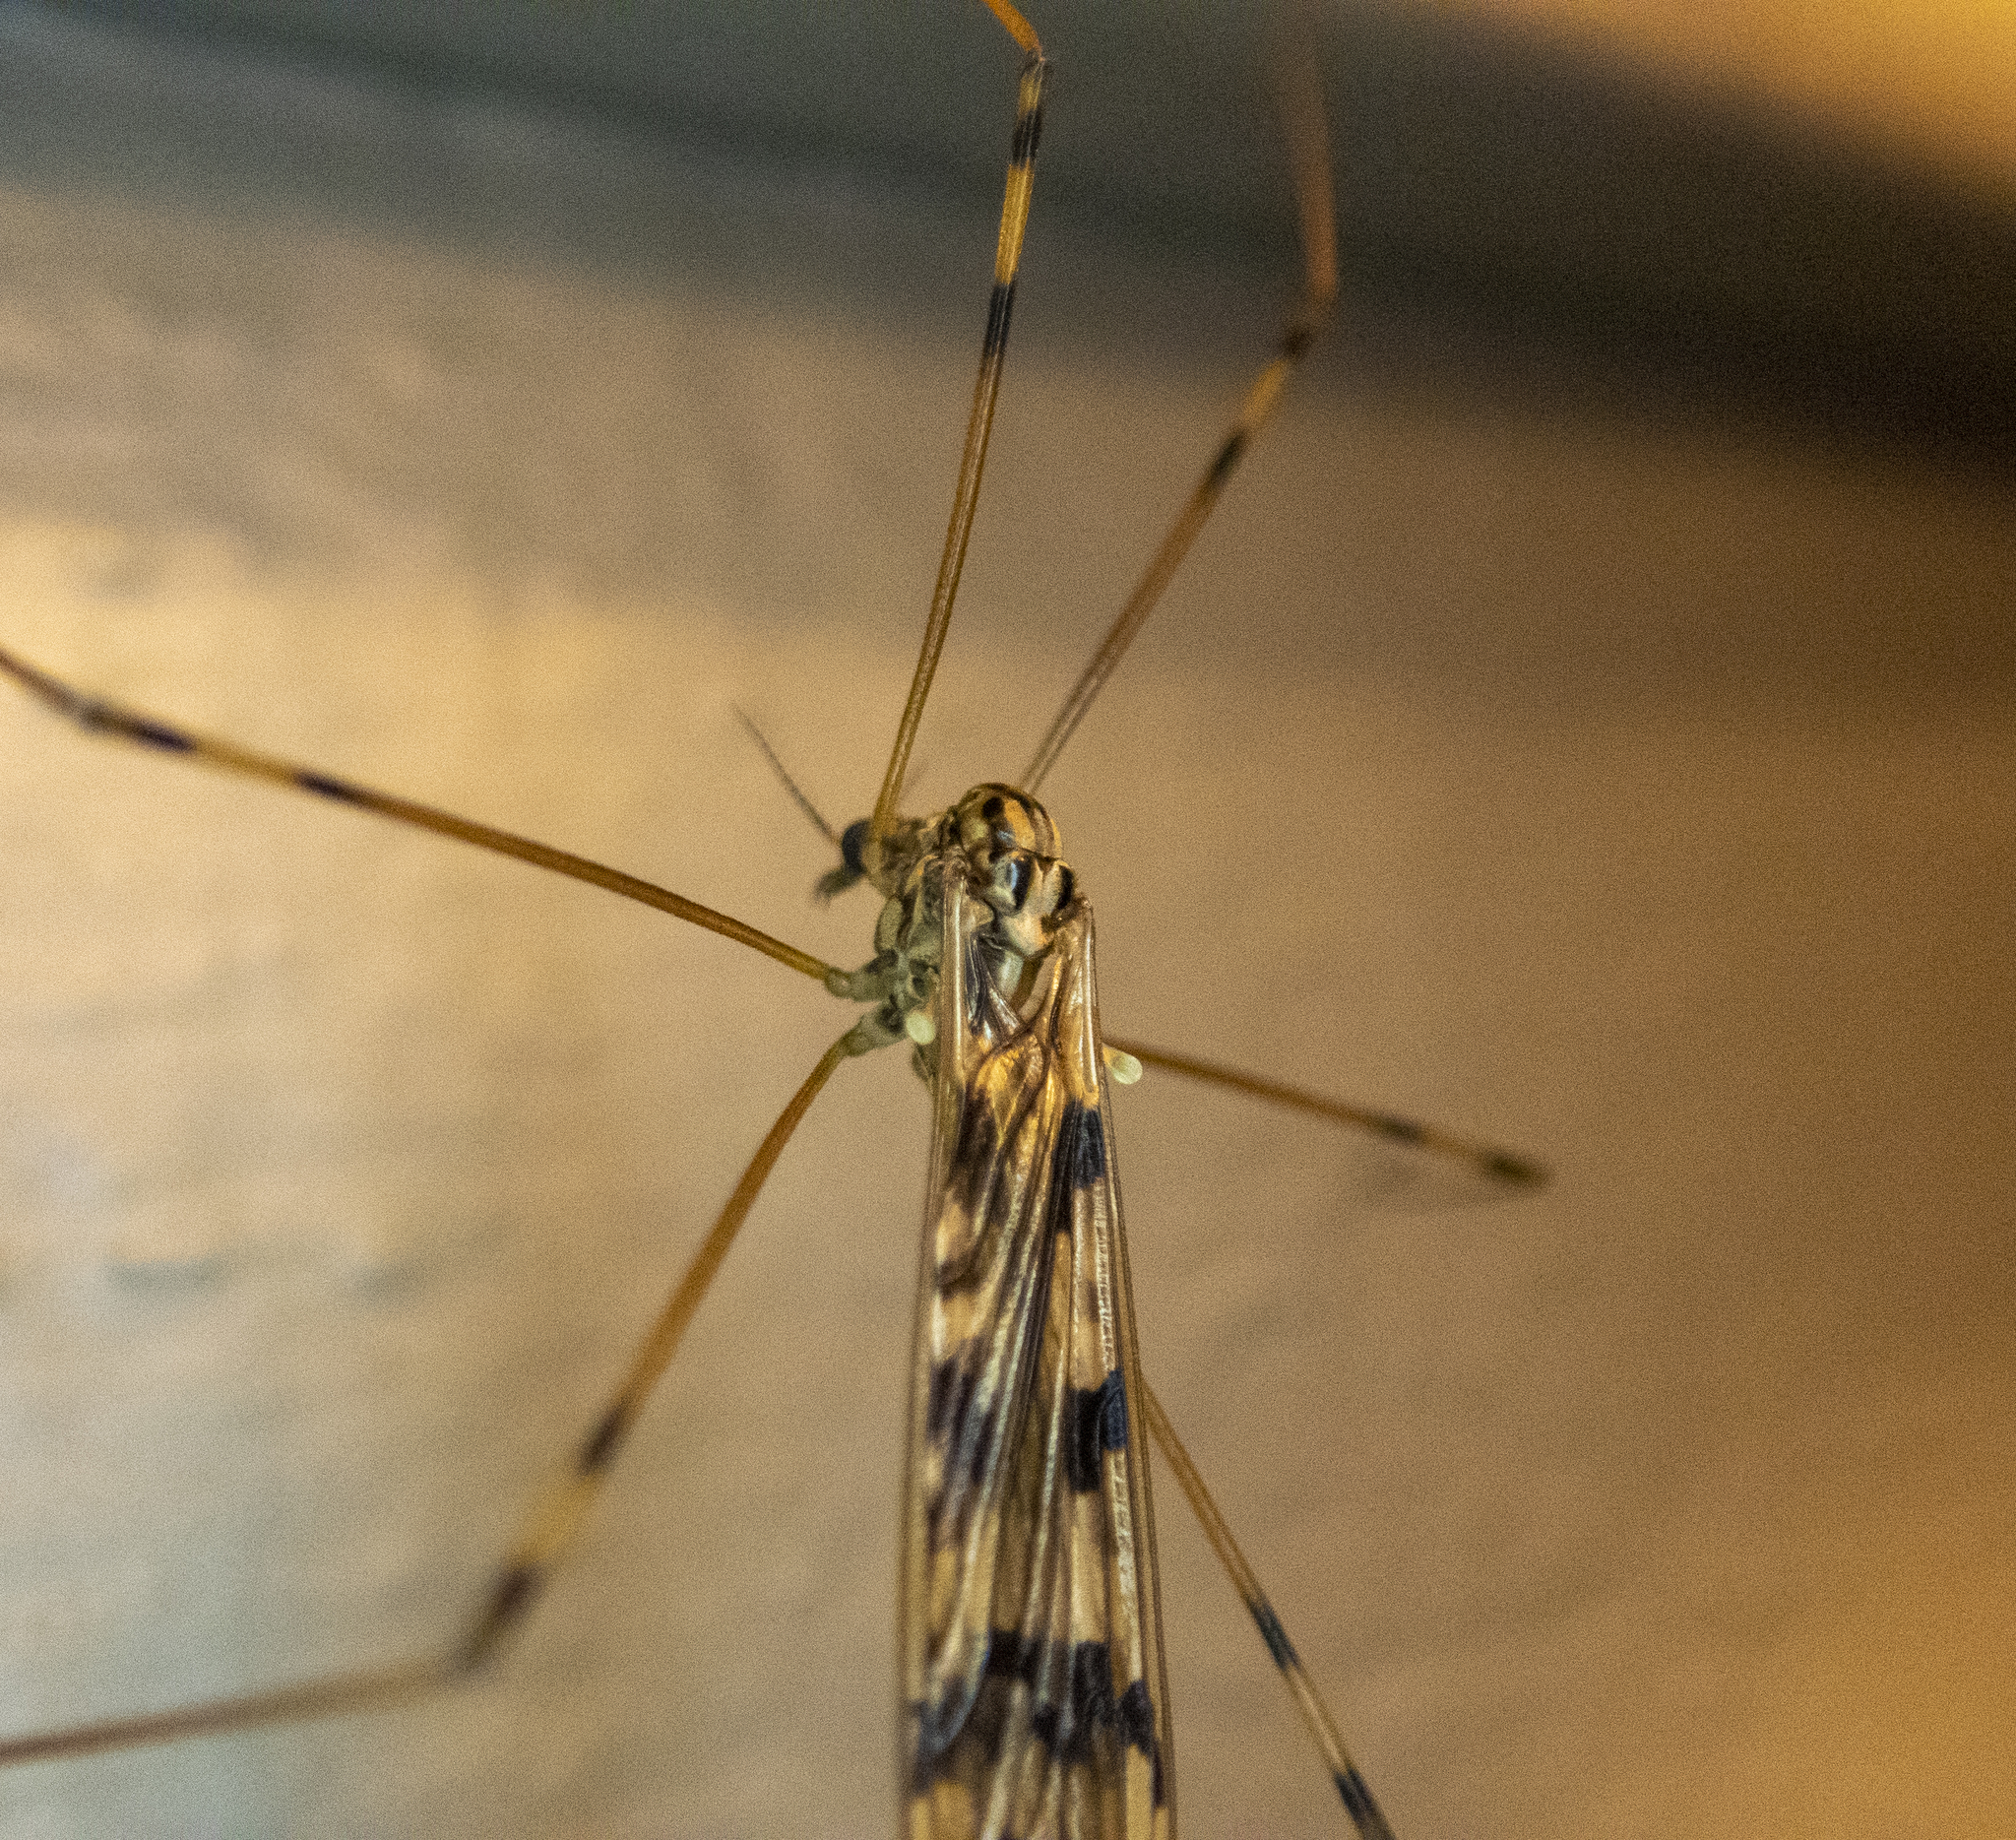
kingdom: Animalia
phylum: Arthropoda
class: Insecta
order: Diptera
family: Limoniidae
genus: Metalimnobia
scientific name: Metalimnobia cinctipes
